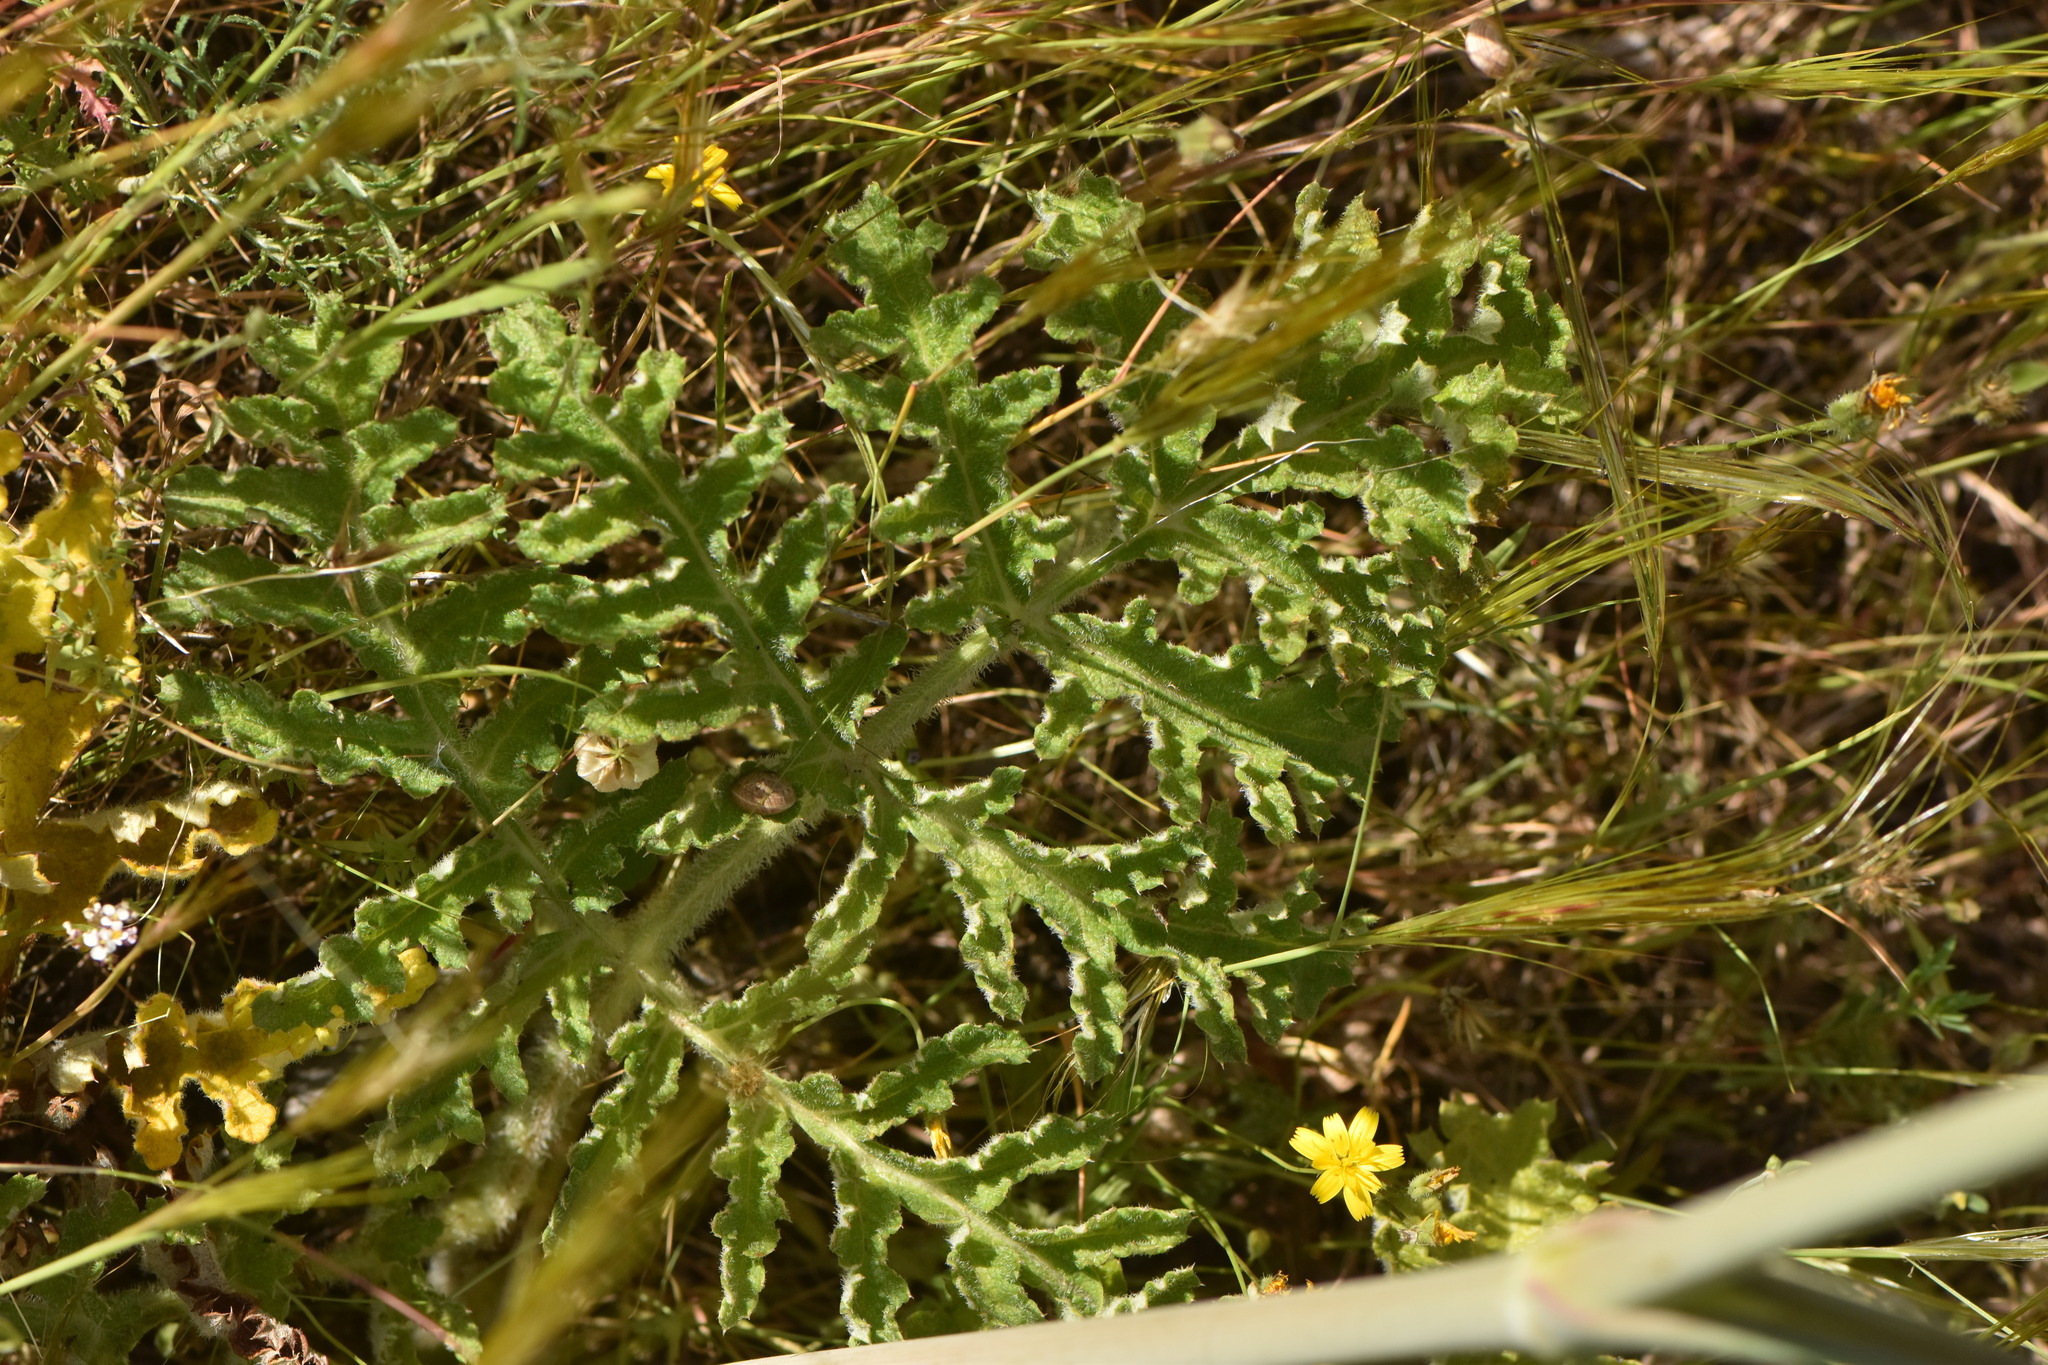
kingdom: Plantae
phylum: Tracheophyta
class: Magnoliopsida
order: Apiales
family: Apiaceae
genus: Thapsia
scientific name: Thapsia villosa
